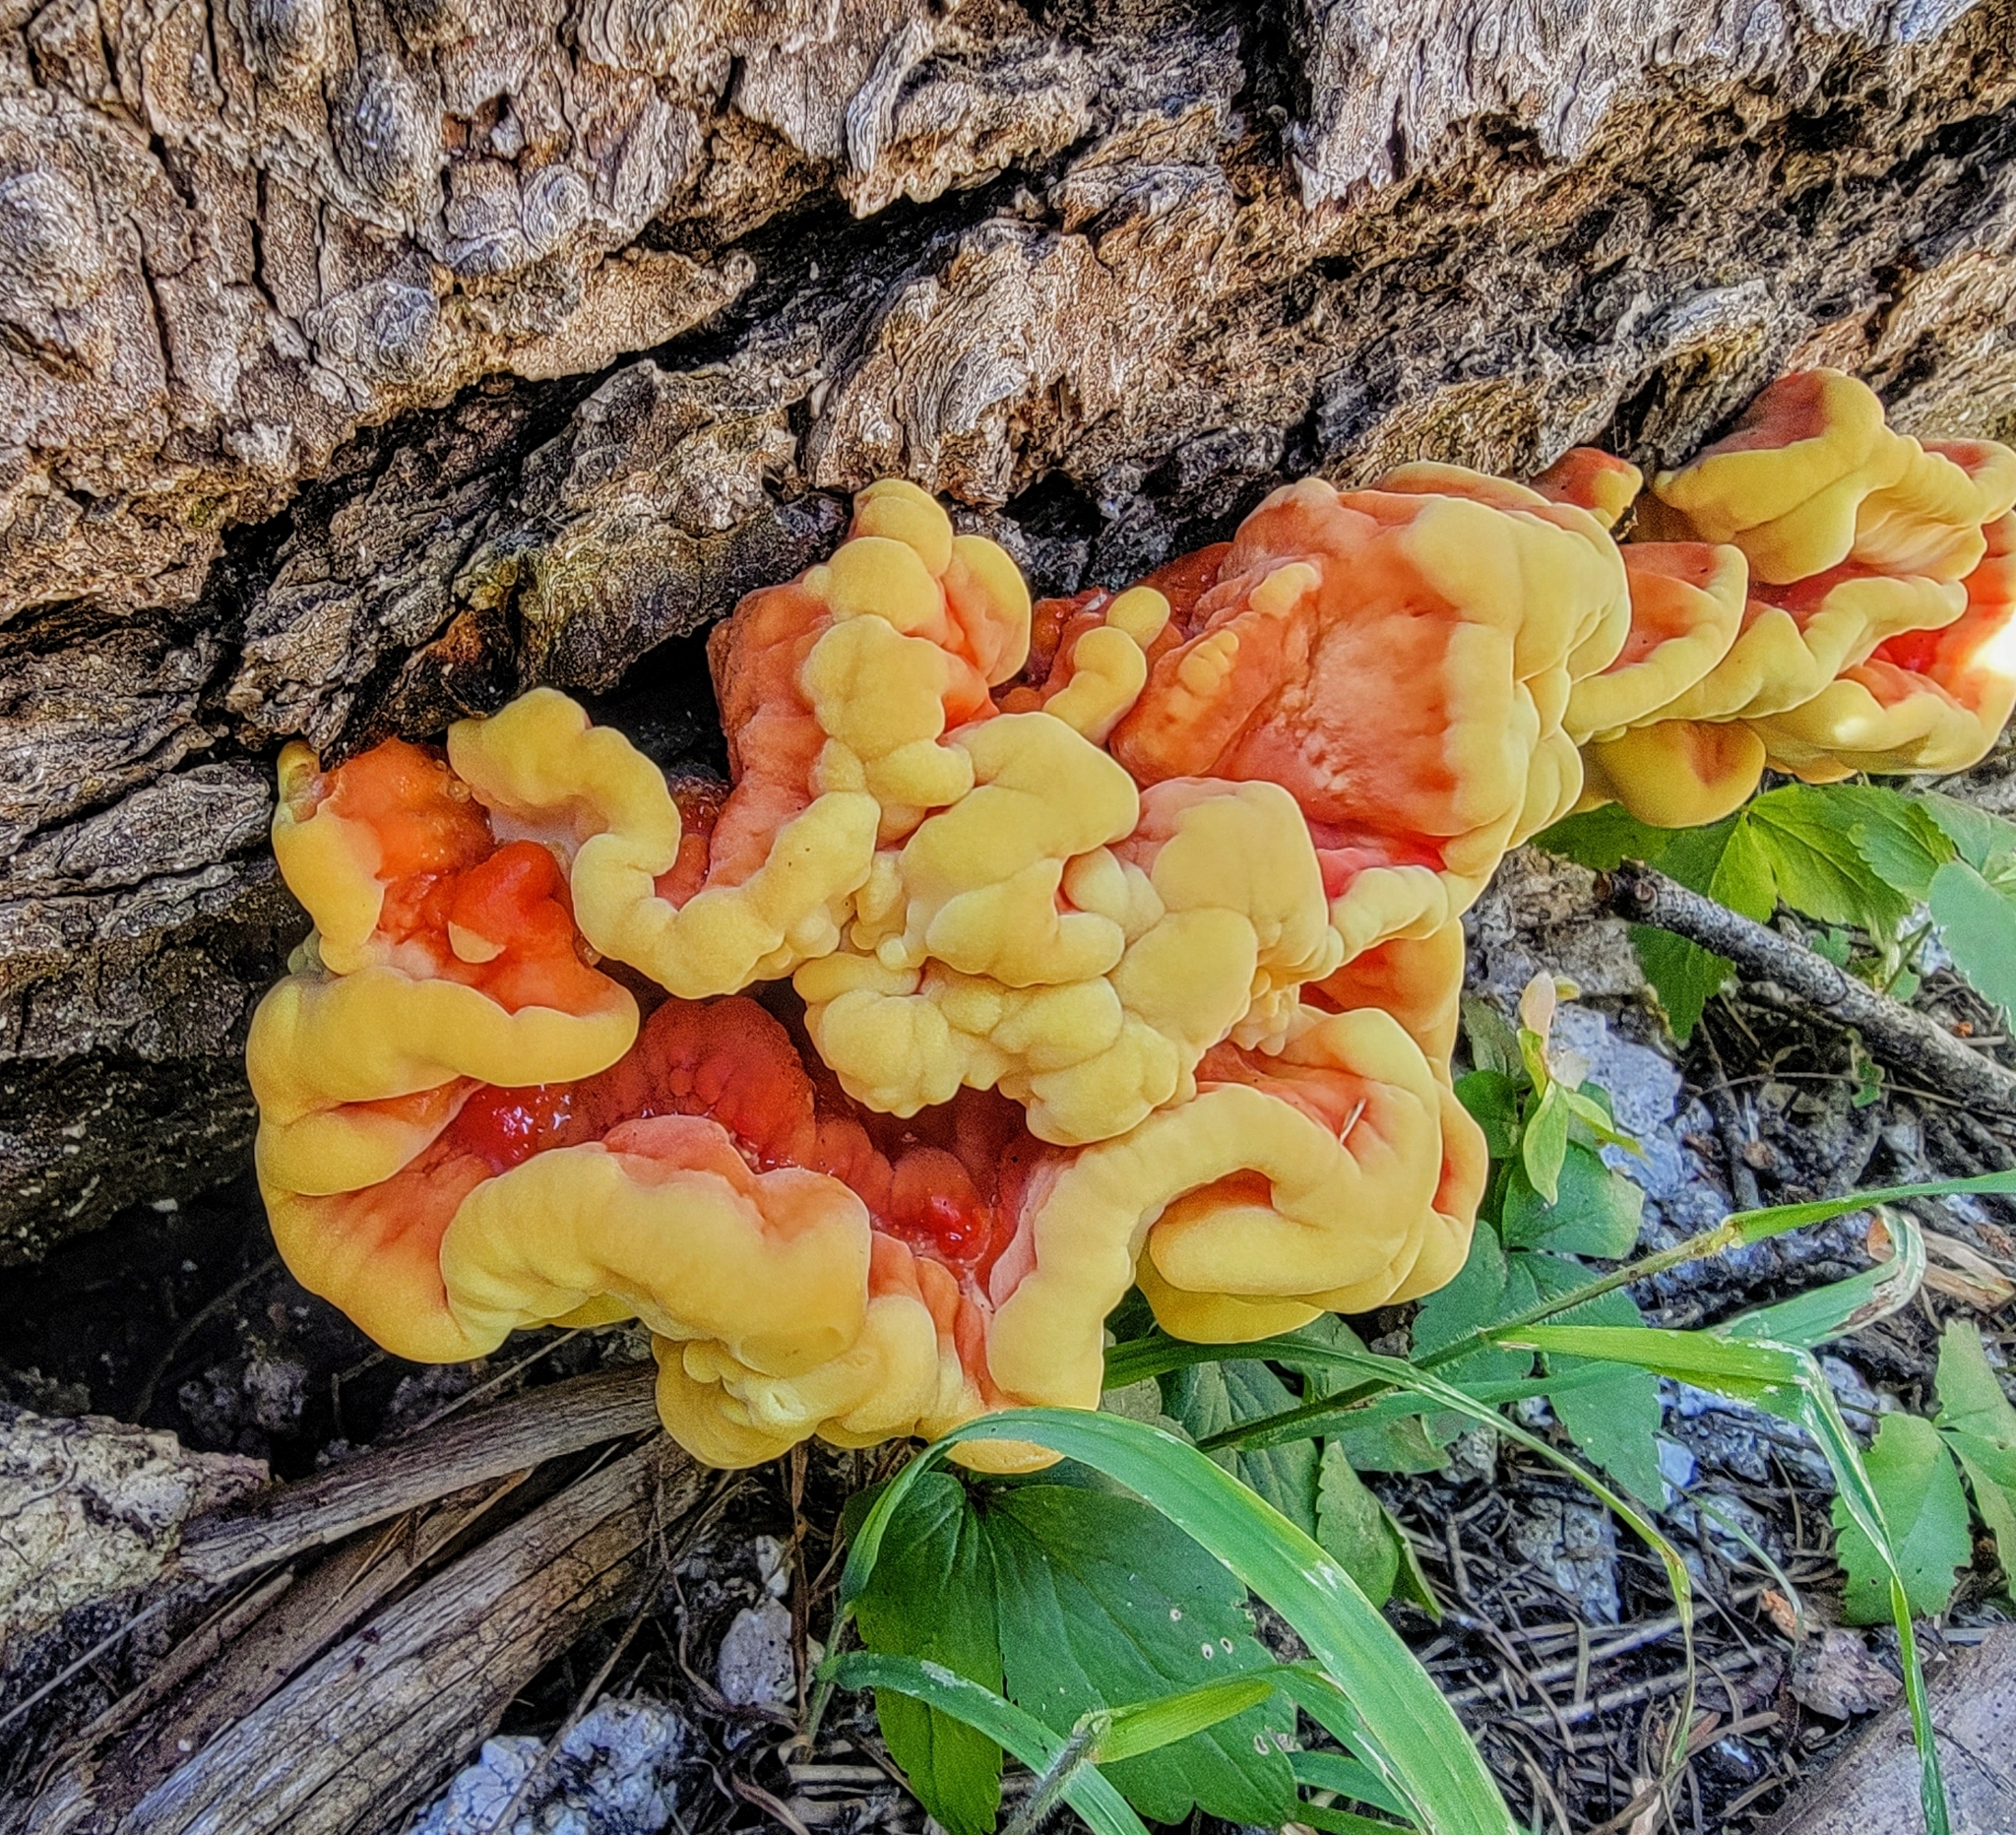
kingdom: Fungi
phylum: Basidiomycota
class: Agaricomycetes
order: Polyporales
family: Laetiporaceae
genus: Laetiporus
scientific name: Laetiporus conifericola
